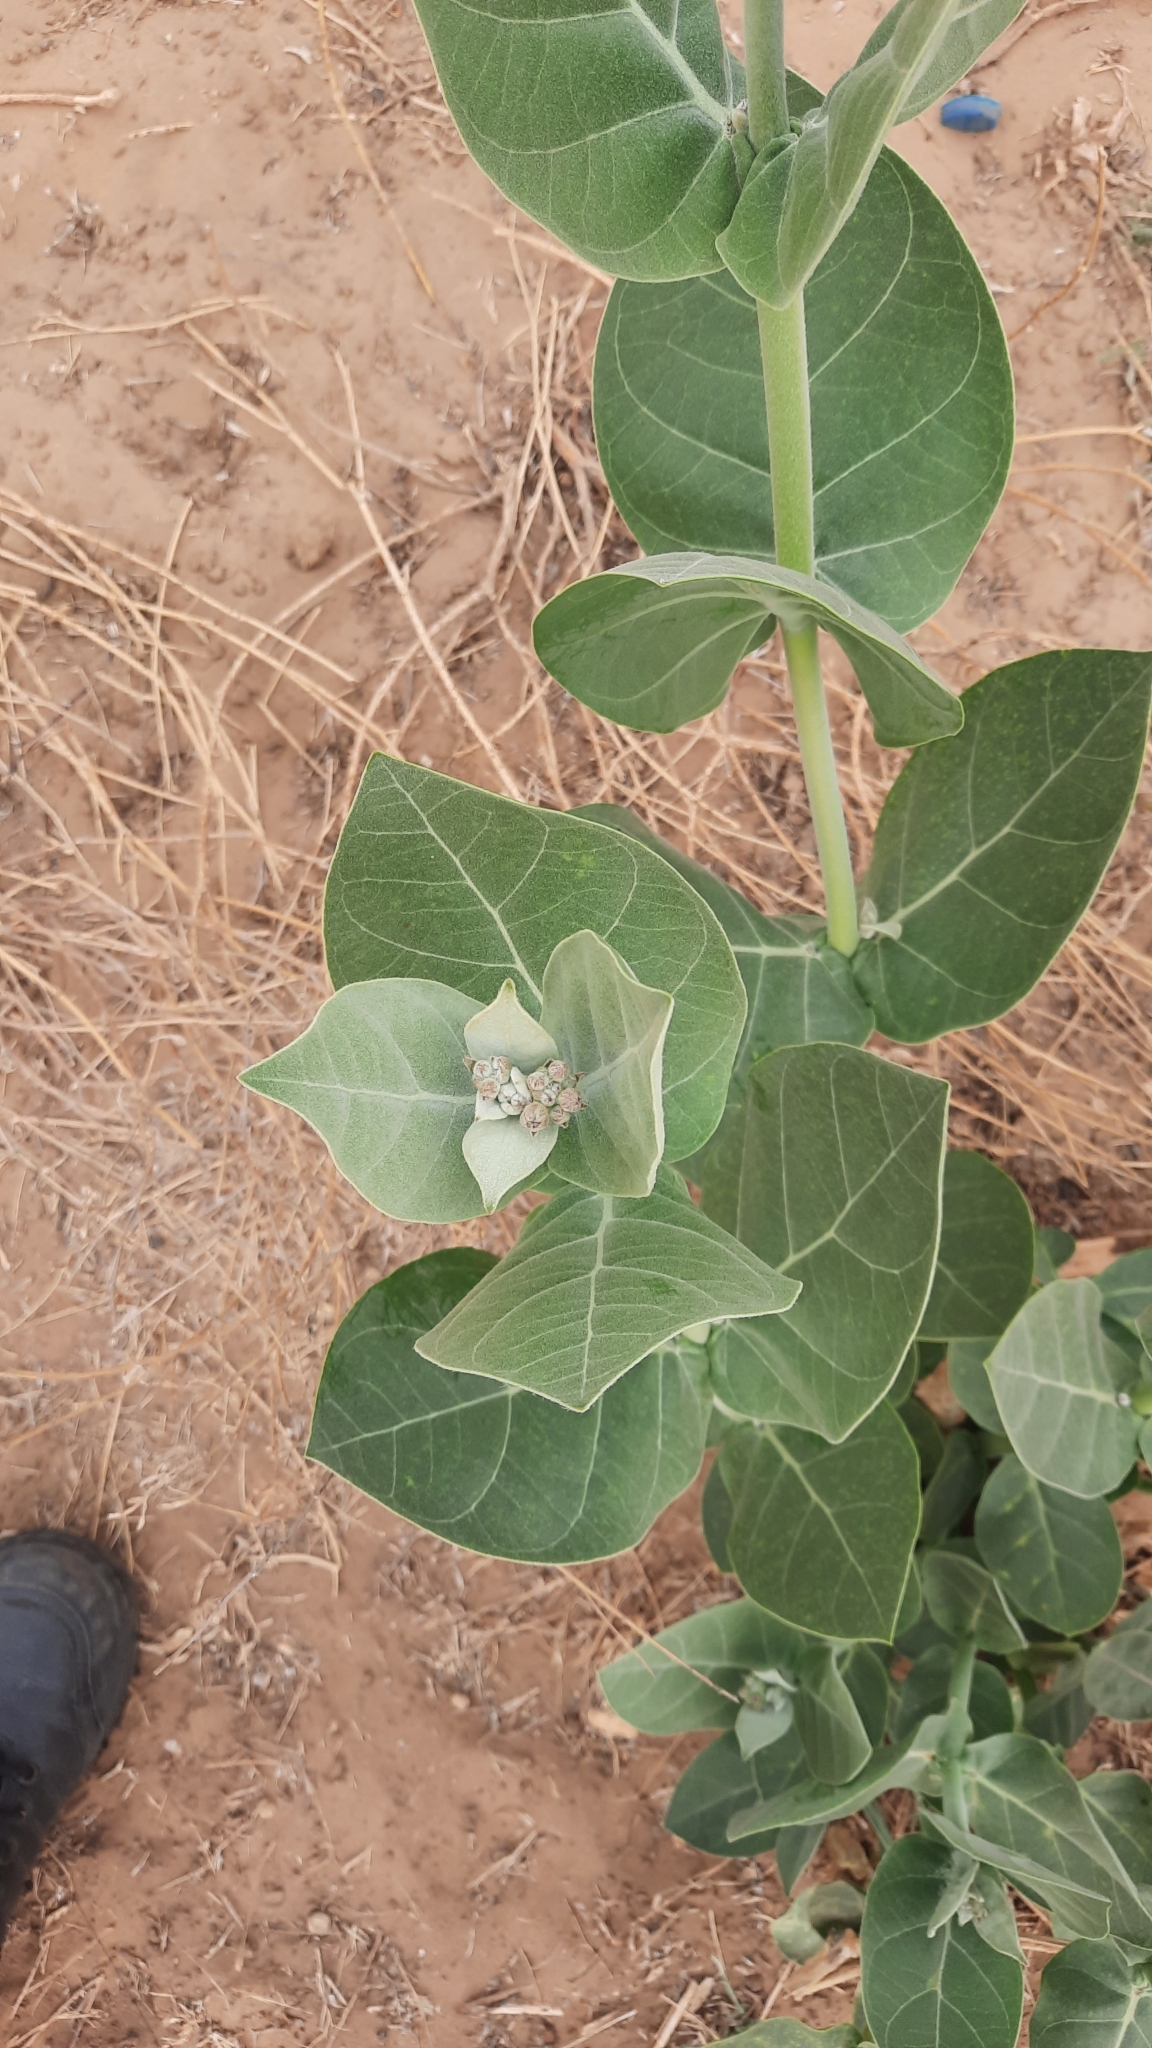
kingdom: Plantae
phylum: Tracheophyta
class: Magnoliopsida
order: Gentianales
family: Apocynaceae
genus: Calotropis
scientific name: Calotropis procera
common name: Roostertree
